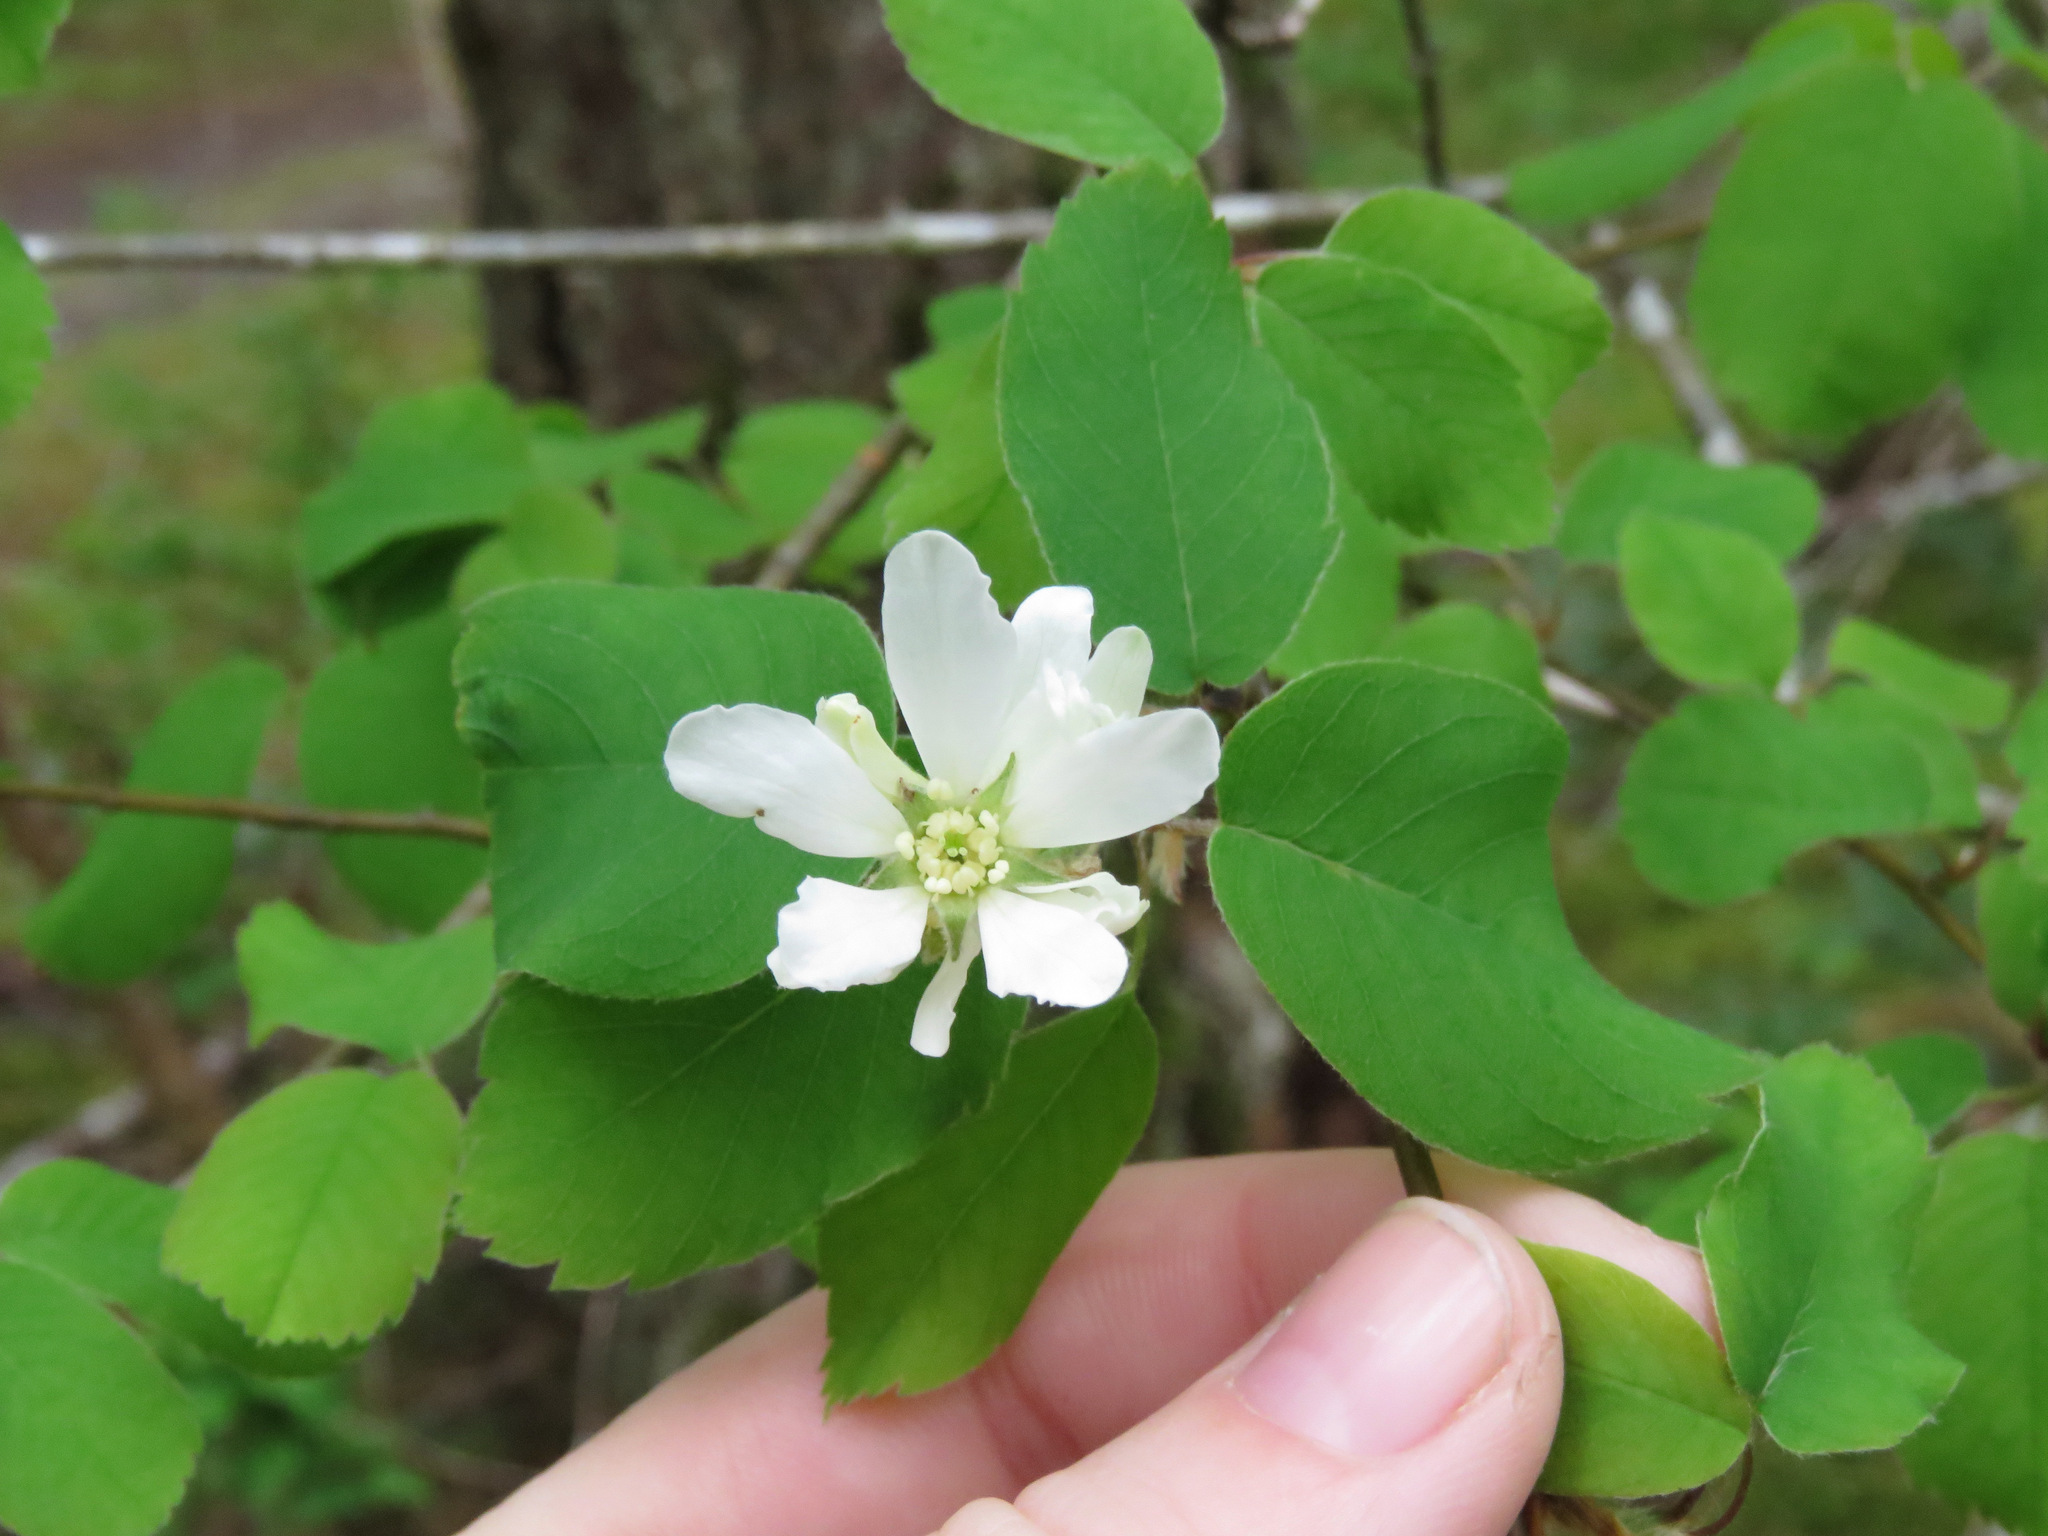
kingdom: Plantae
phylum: Tracheophyta
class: Magnoliopsida
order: Rosales
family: Rosaceae
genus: Amelanchier
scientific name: Amelanchier alnifolia
